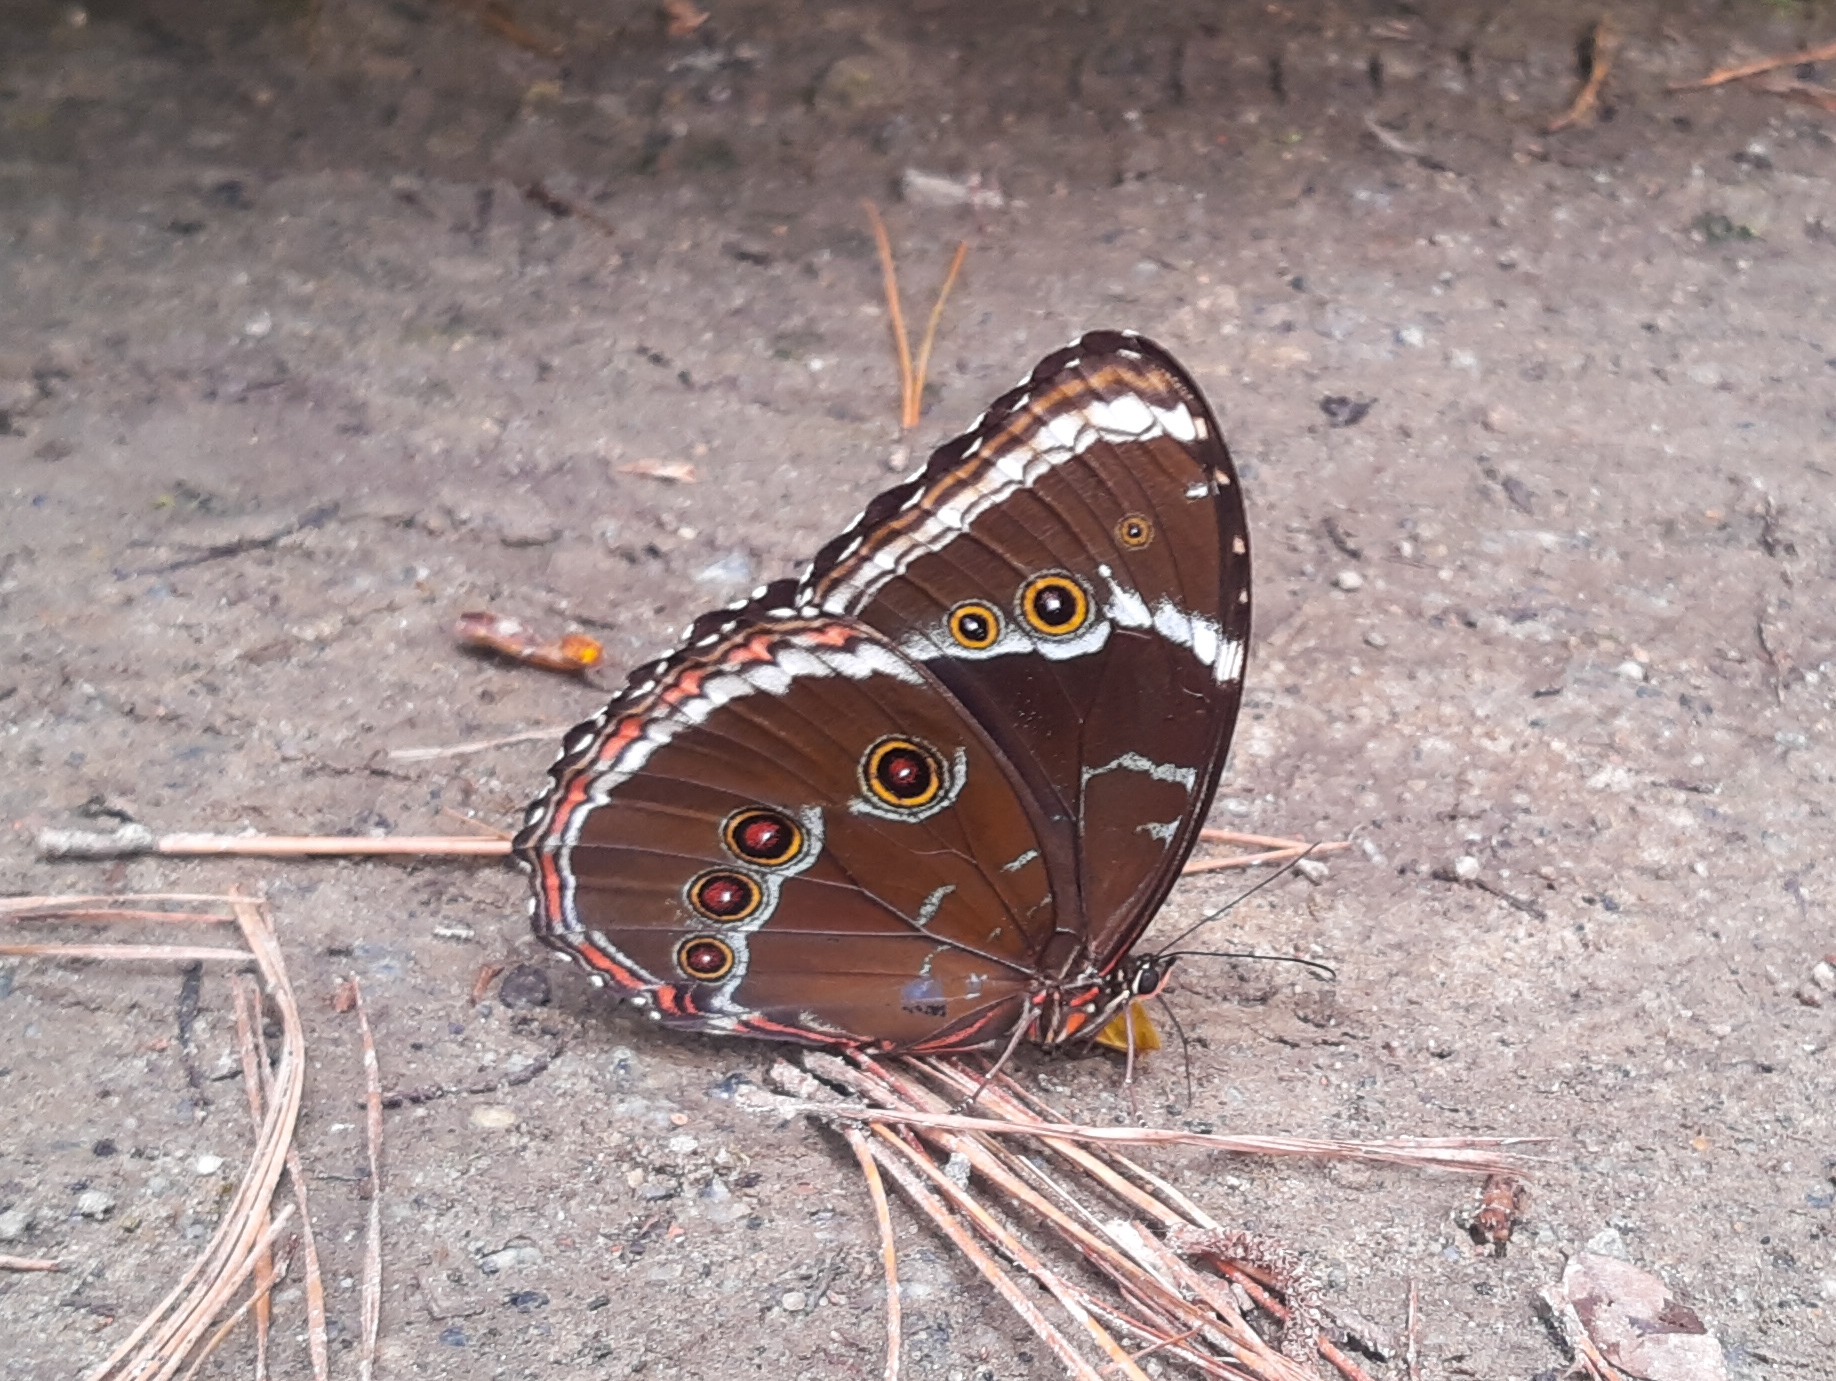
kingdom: Animalia
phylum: Arthropoda
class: Insecta
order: Lepidoptera
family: Nymphalidae
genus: Morpho
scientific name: Morpho helenor
